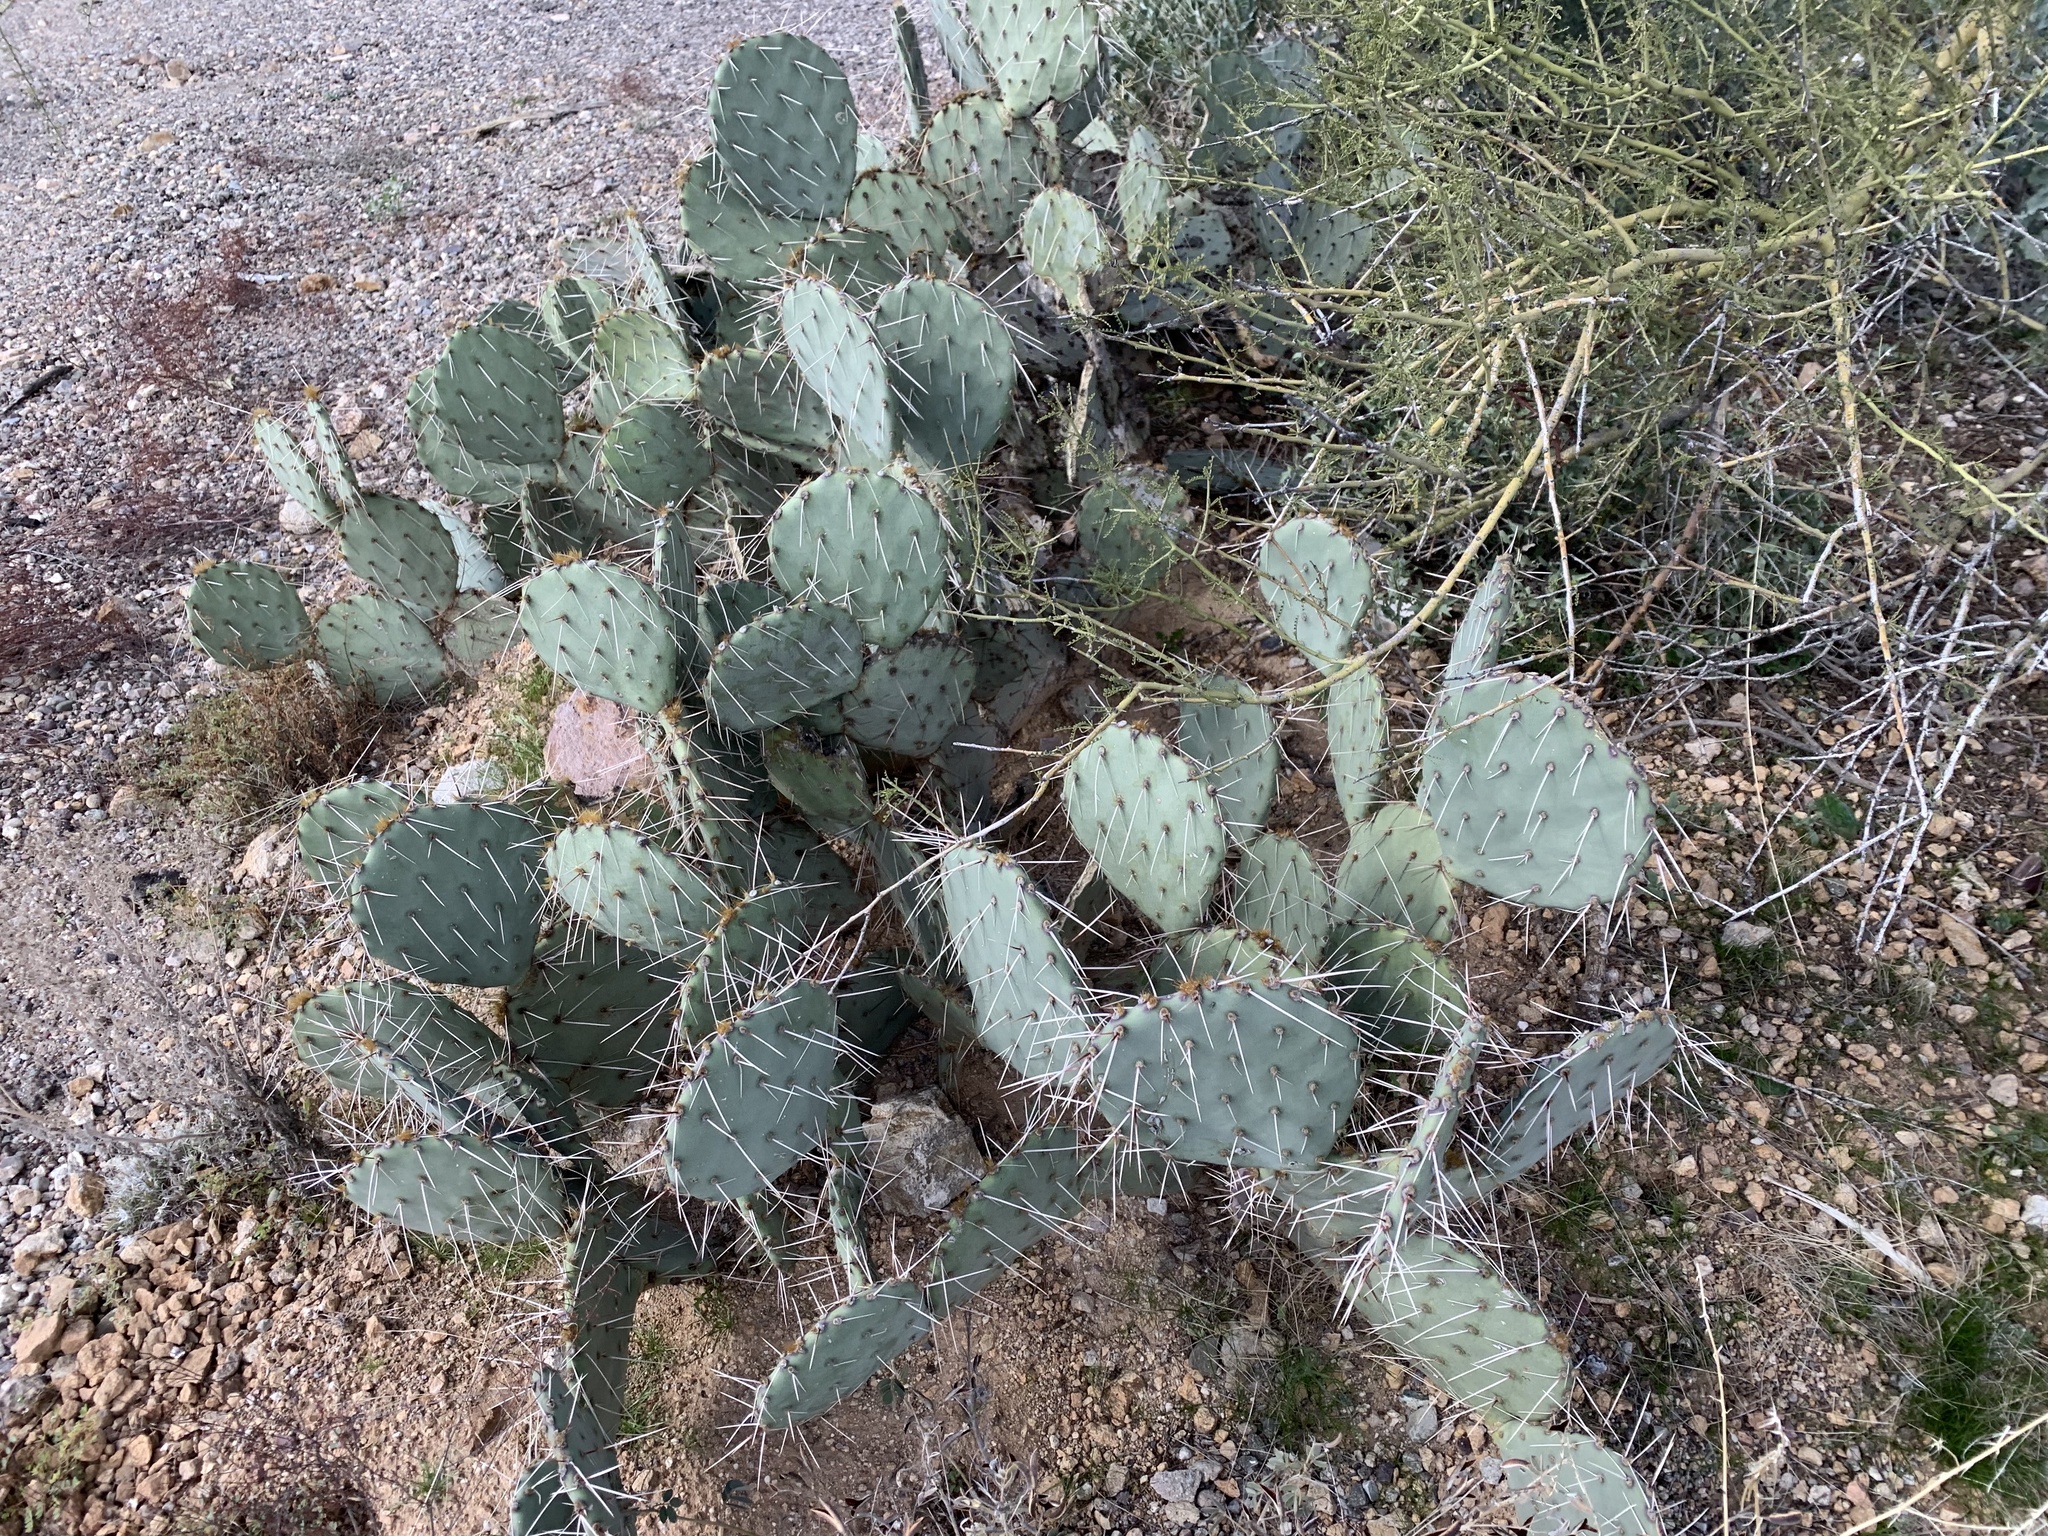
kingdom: Plantae
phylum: Tracheophyta
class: Magnoliopsida
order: Caryophyllales
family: Cactaceae
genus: Opuntia
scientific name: Opuntia engelmannii
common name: Cactus-apple
